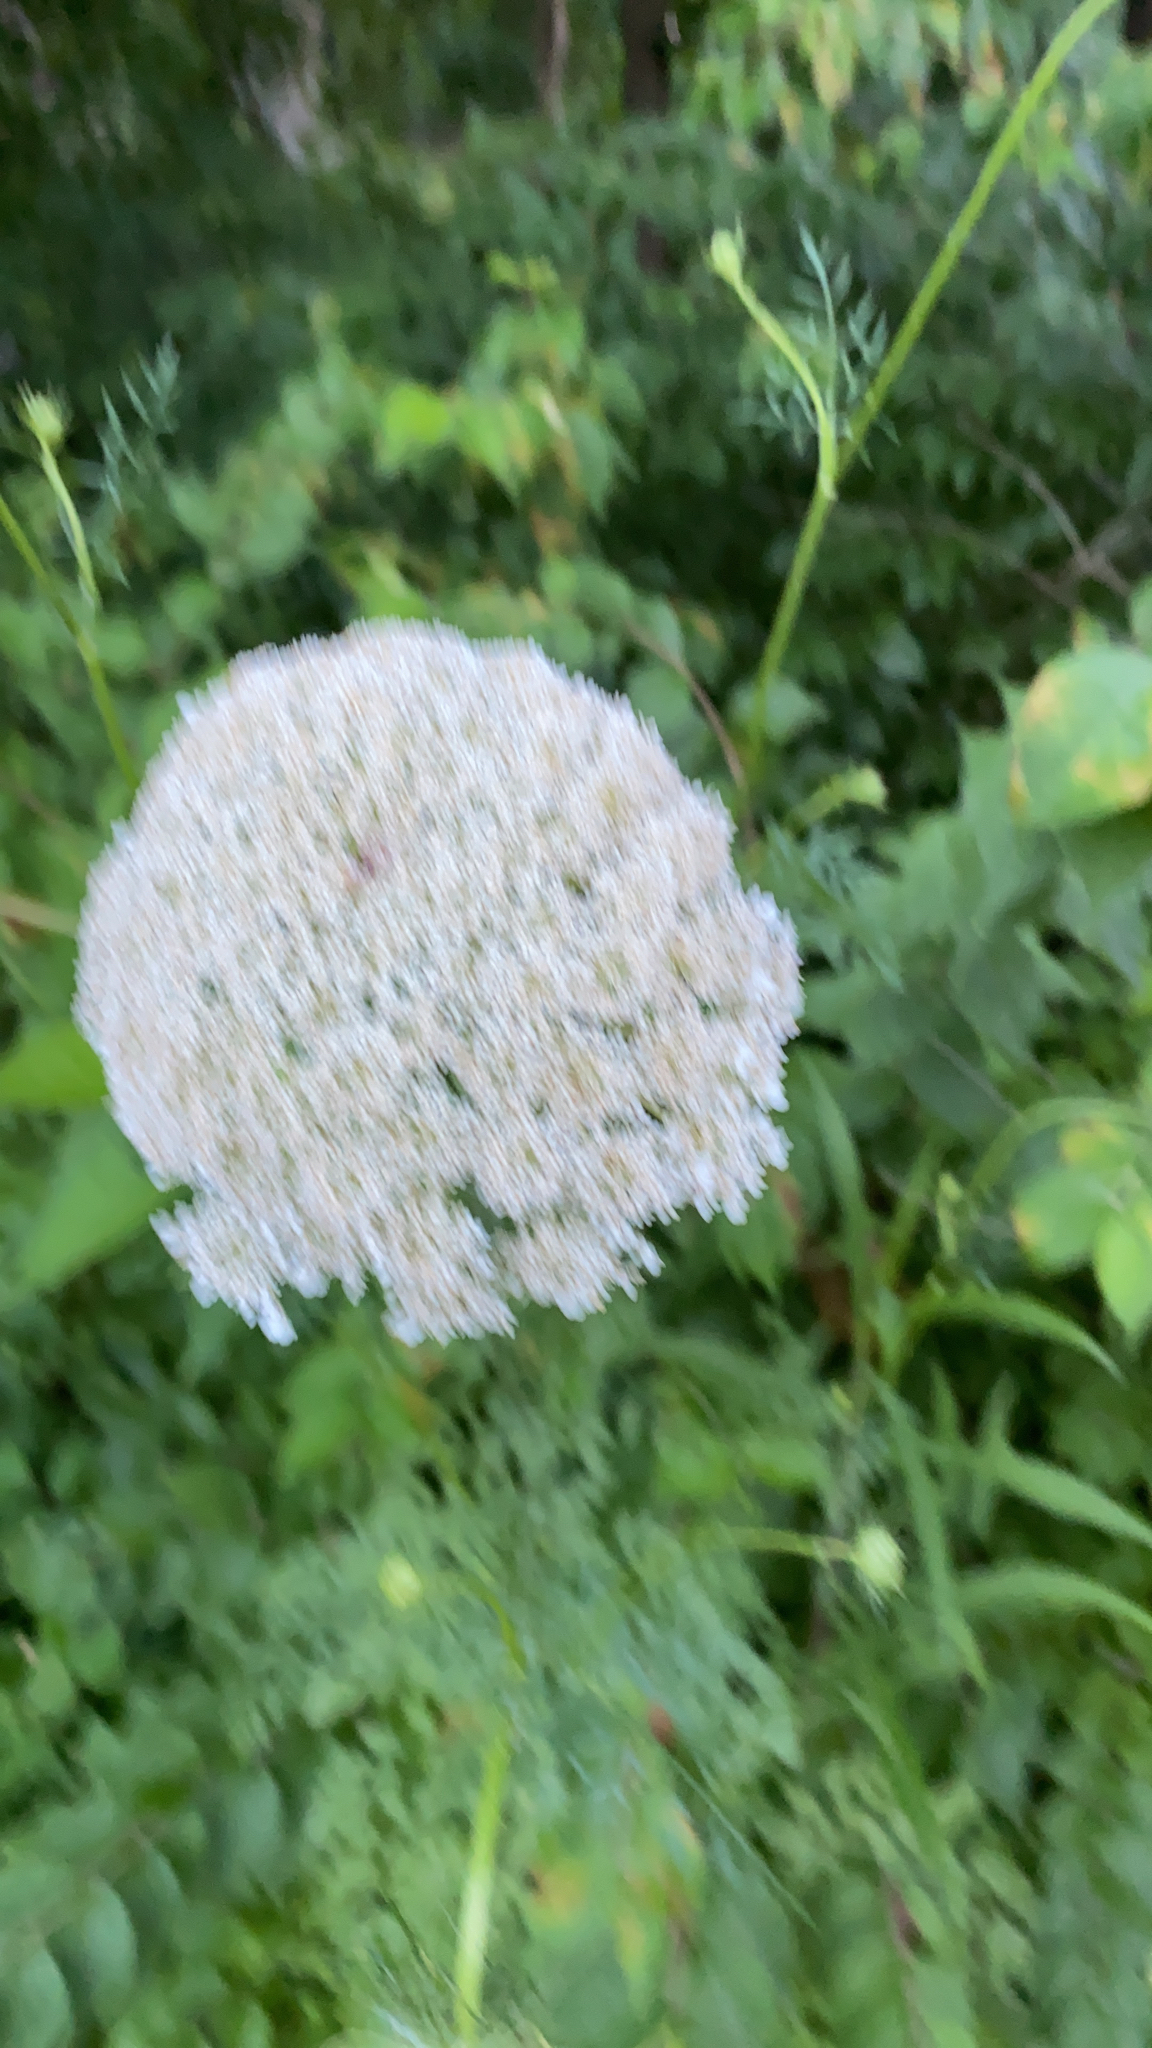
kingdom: Plantae
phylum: Tracheophyta
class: Magnoliopsida
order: Apiales
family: Apiaceae
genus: Daucus
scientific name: Daucus carota
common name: Wild carrot
